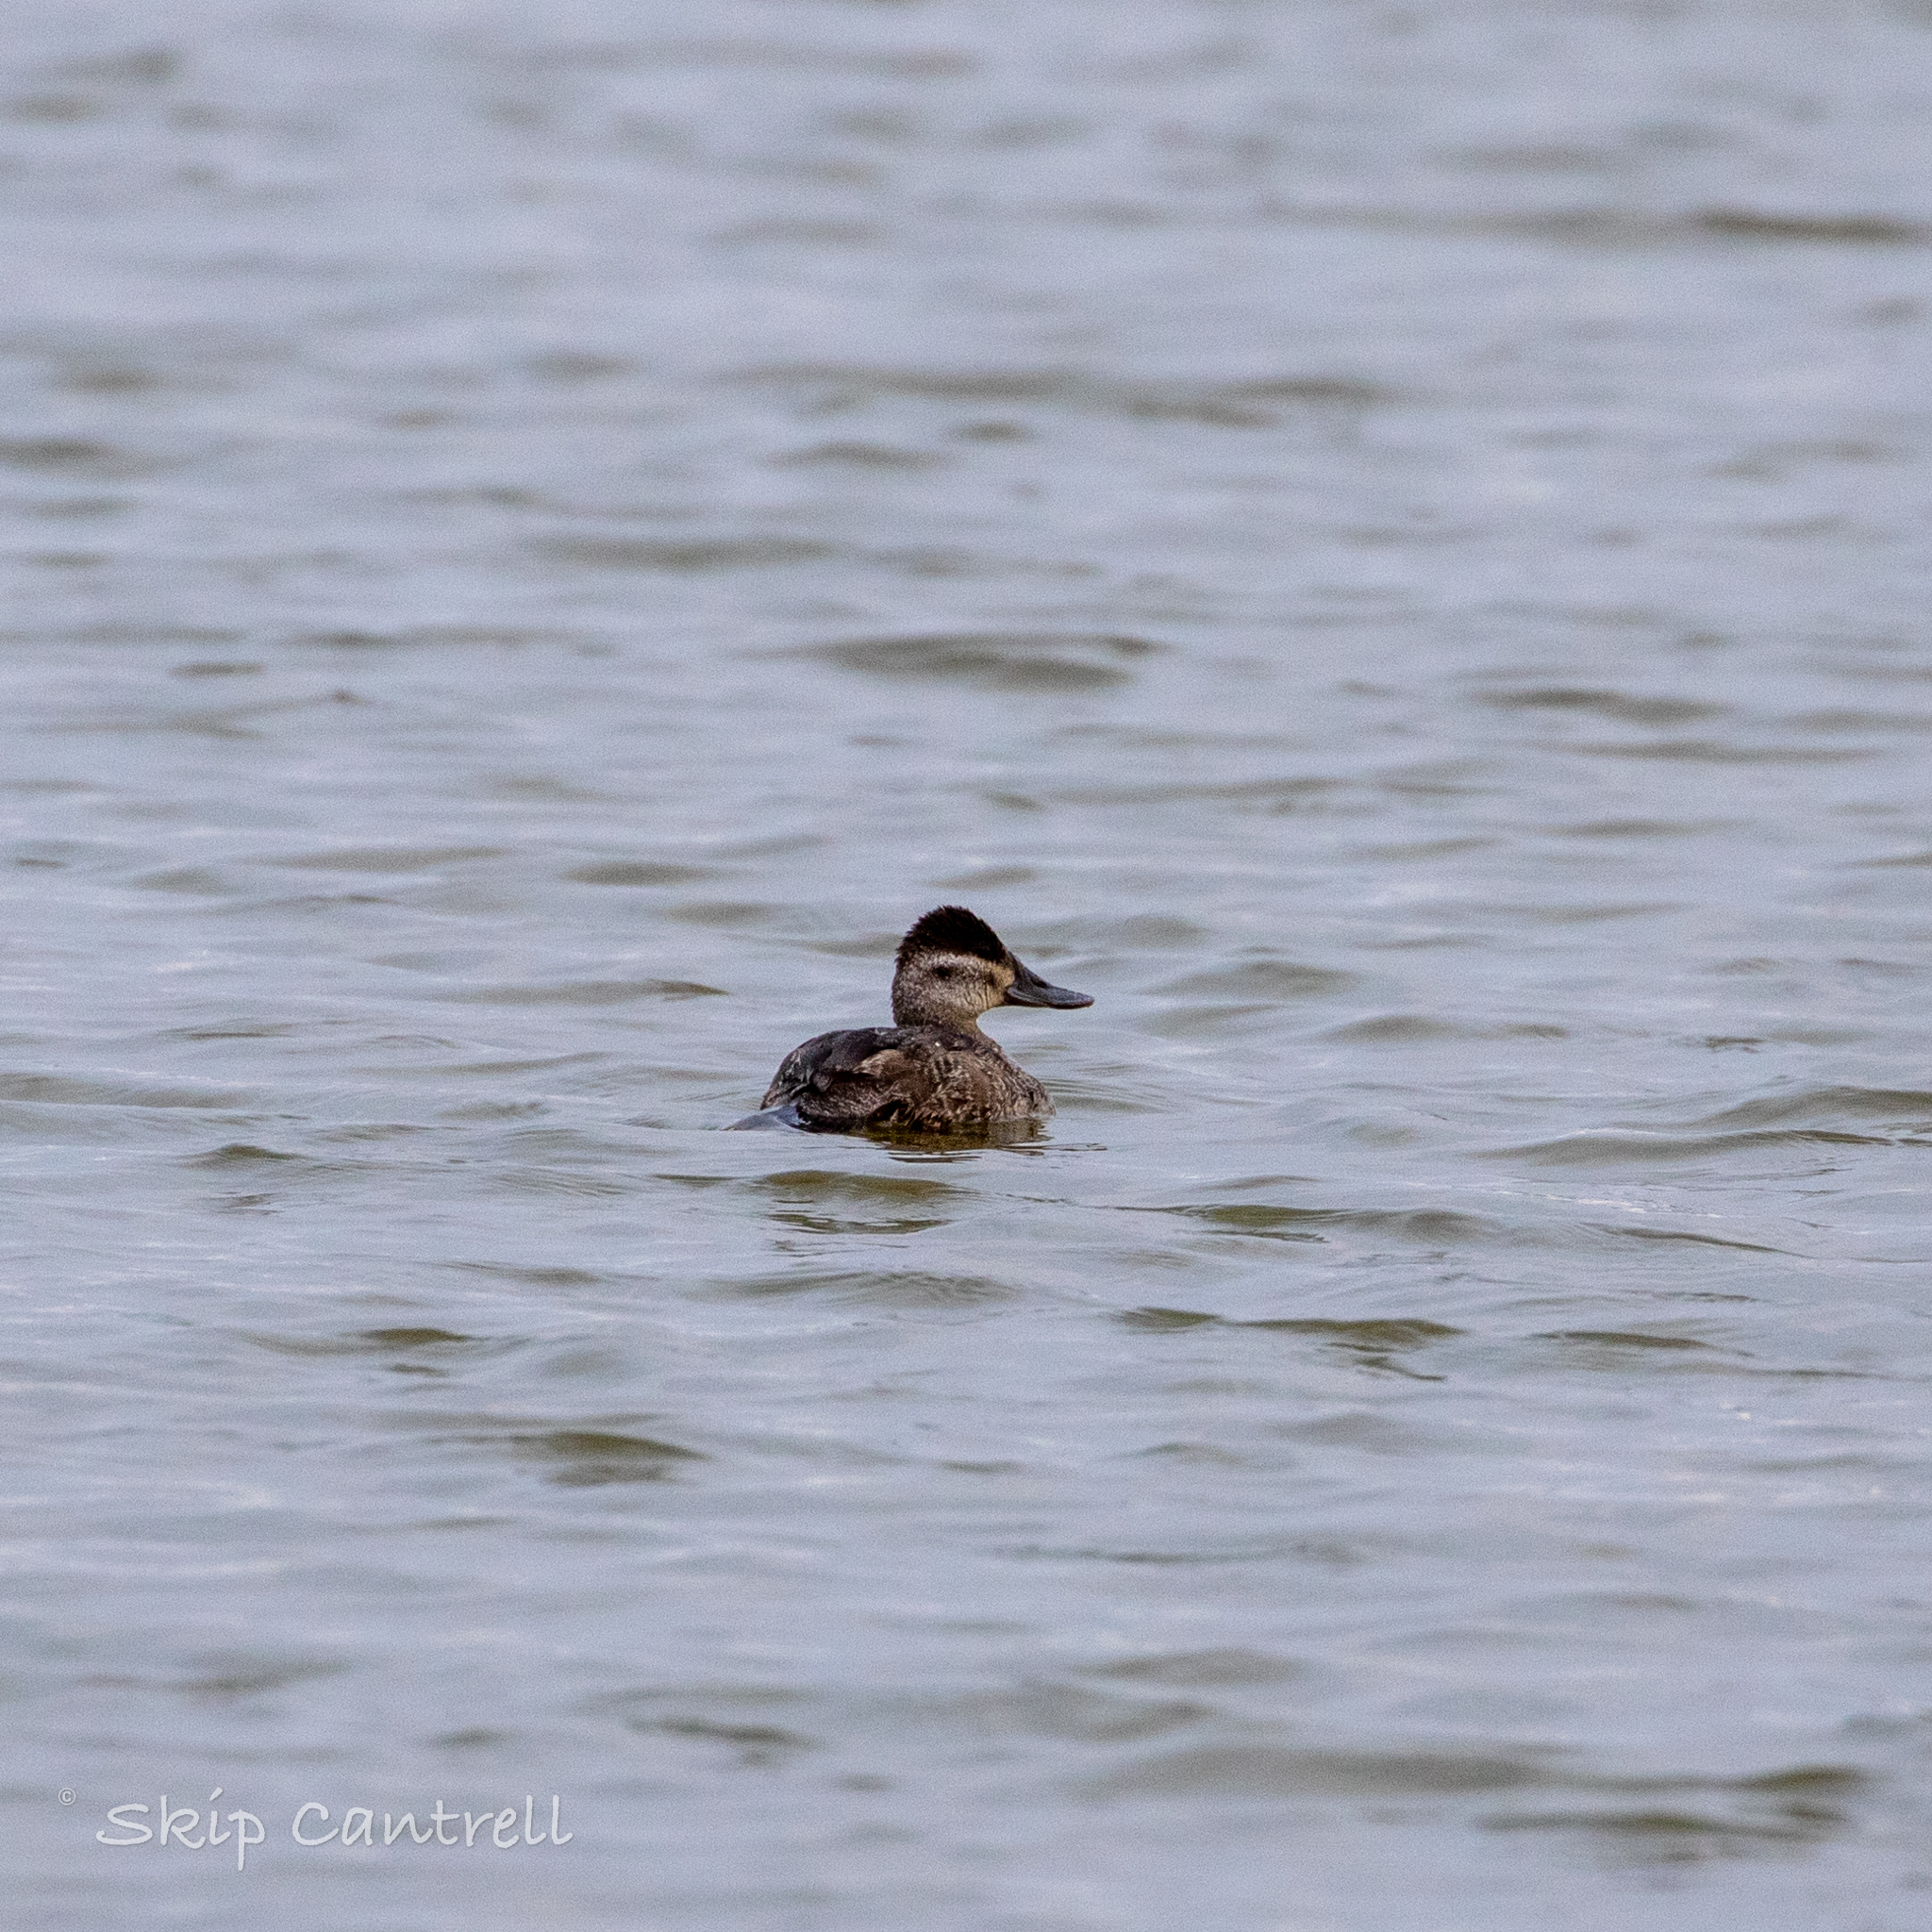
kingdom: Animalia
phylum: Chordata
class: Aves
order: Anseriformes
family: Anatidae
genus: Oxyura
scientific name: Oxyura jamaicensis
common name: Ruddy duck
